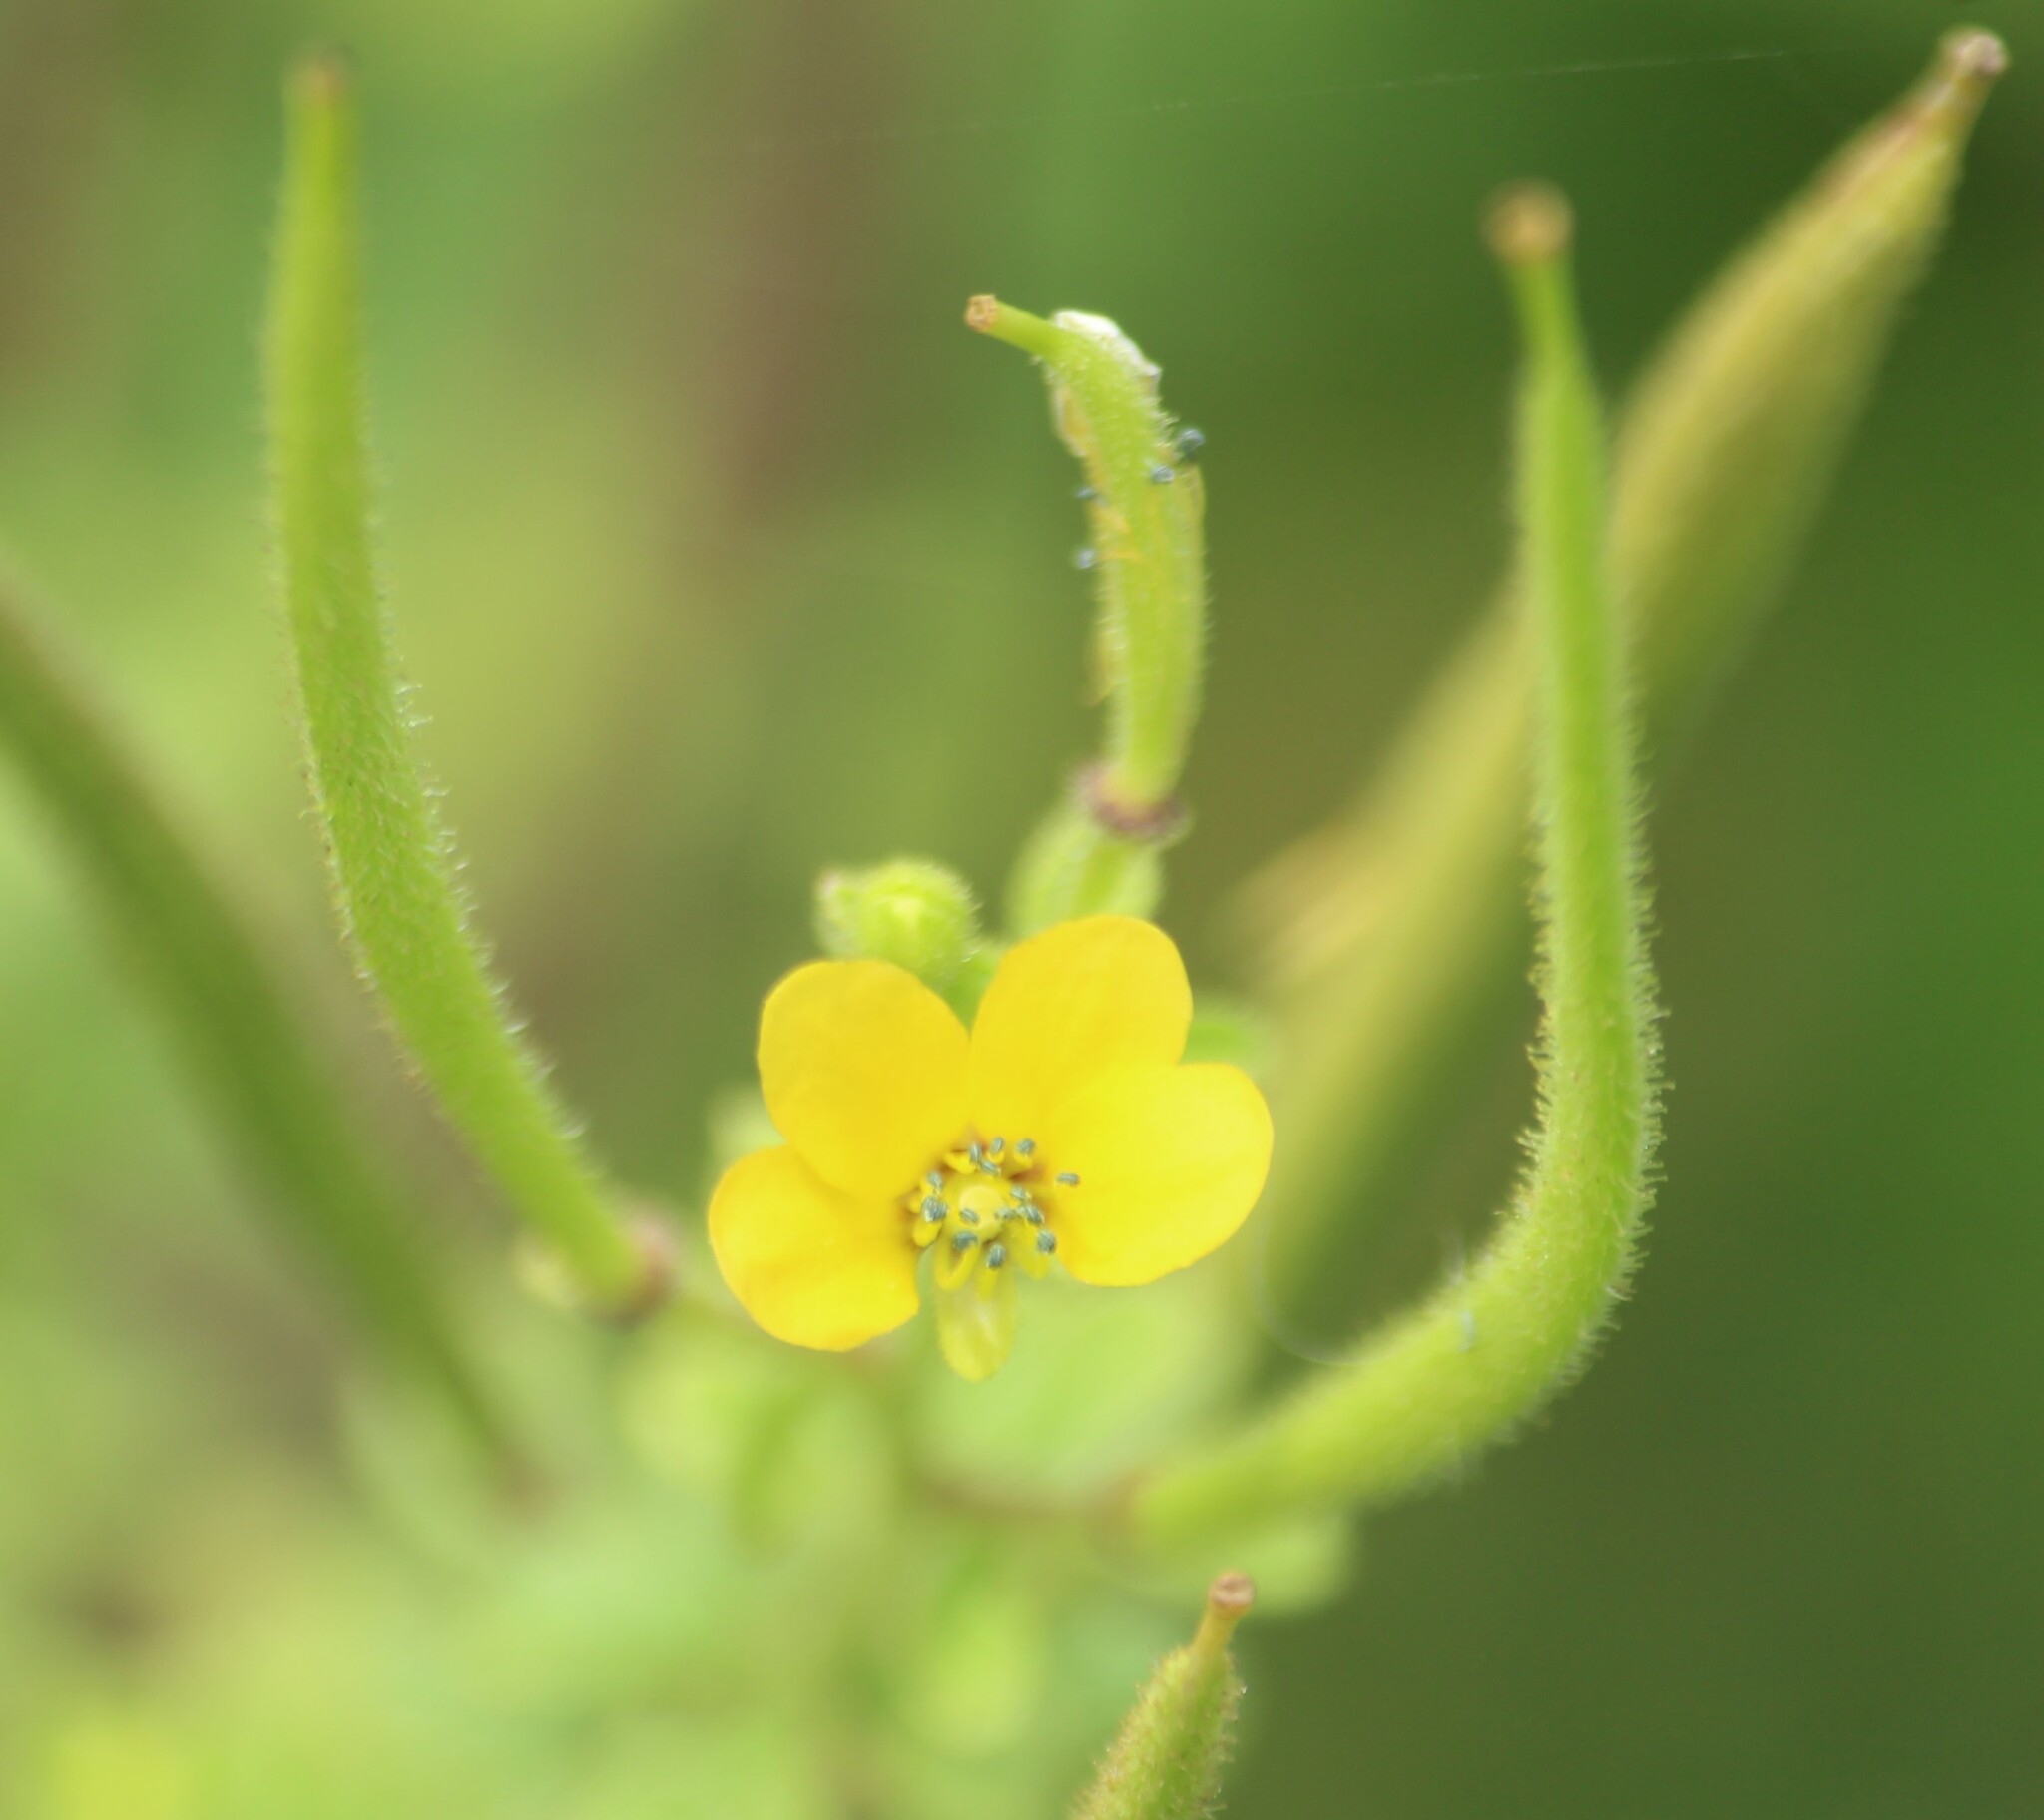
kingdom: Plantae
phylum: Tracheophyta
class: Magnoliopsida
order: Brassicales
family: Cleomaceae
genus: Arivela
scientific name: Arivela viscosa
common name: Asian spiderflower
